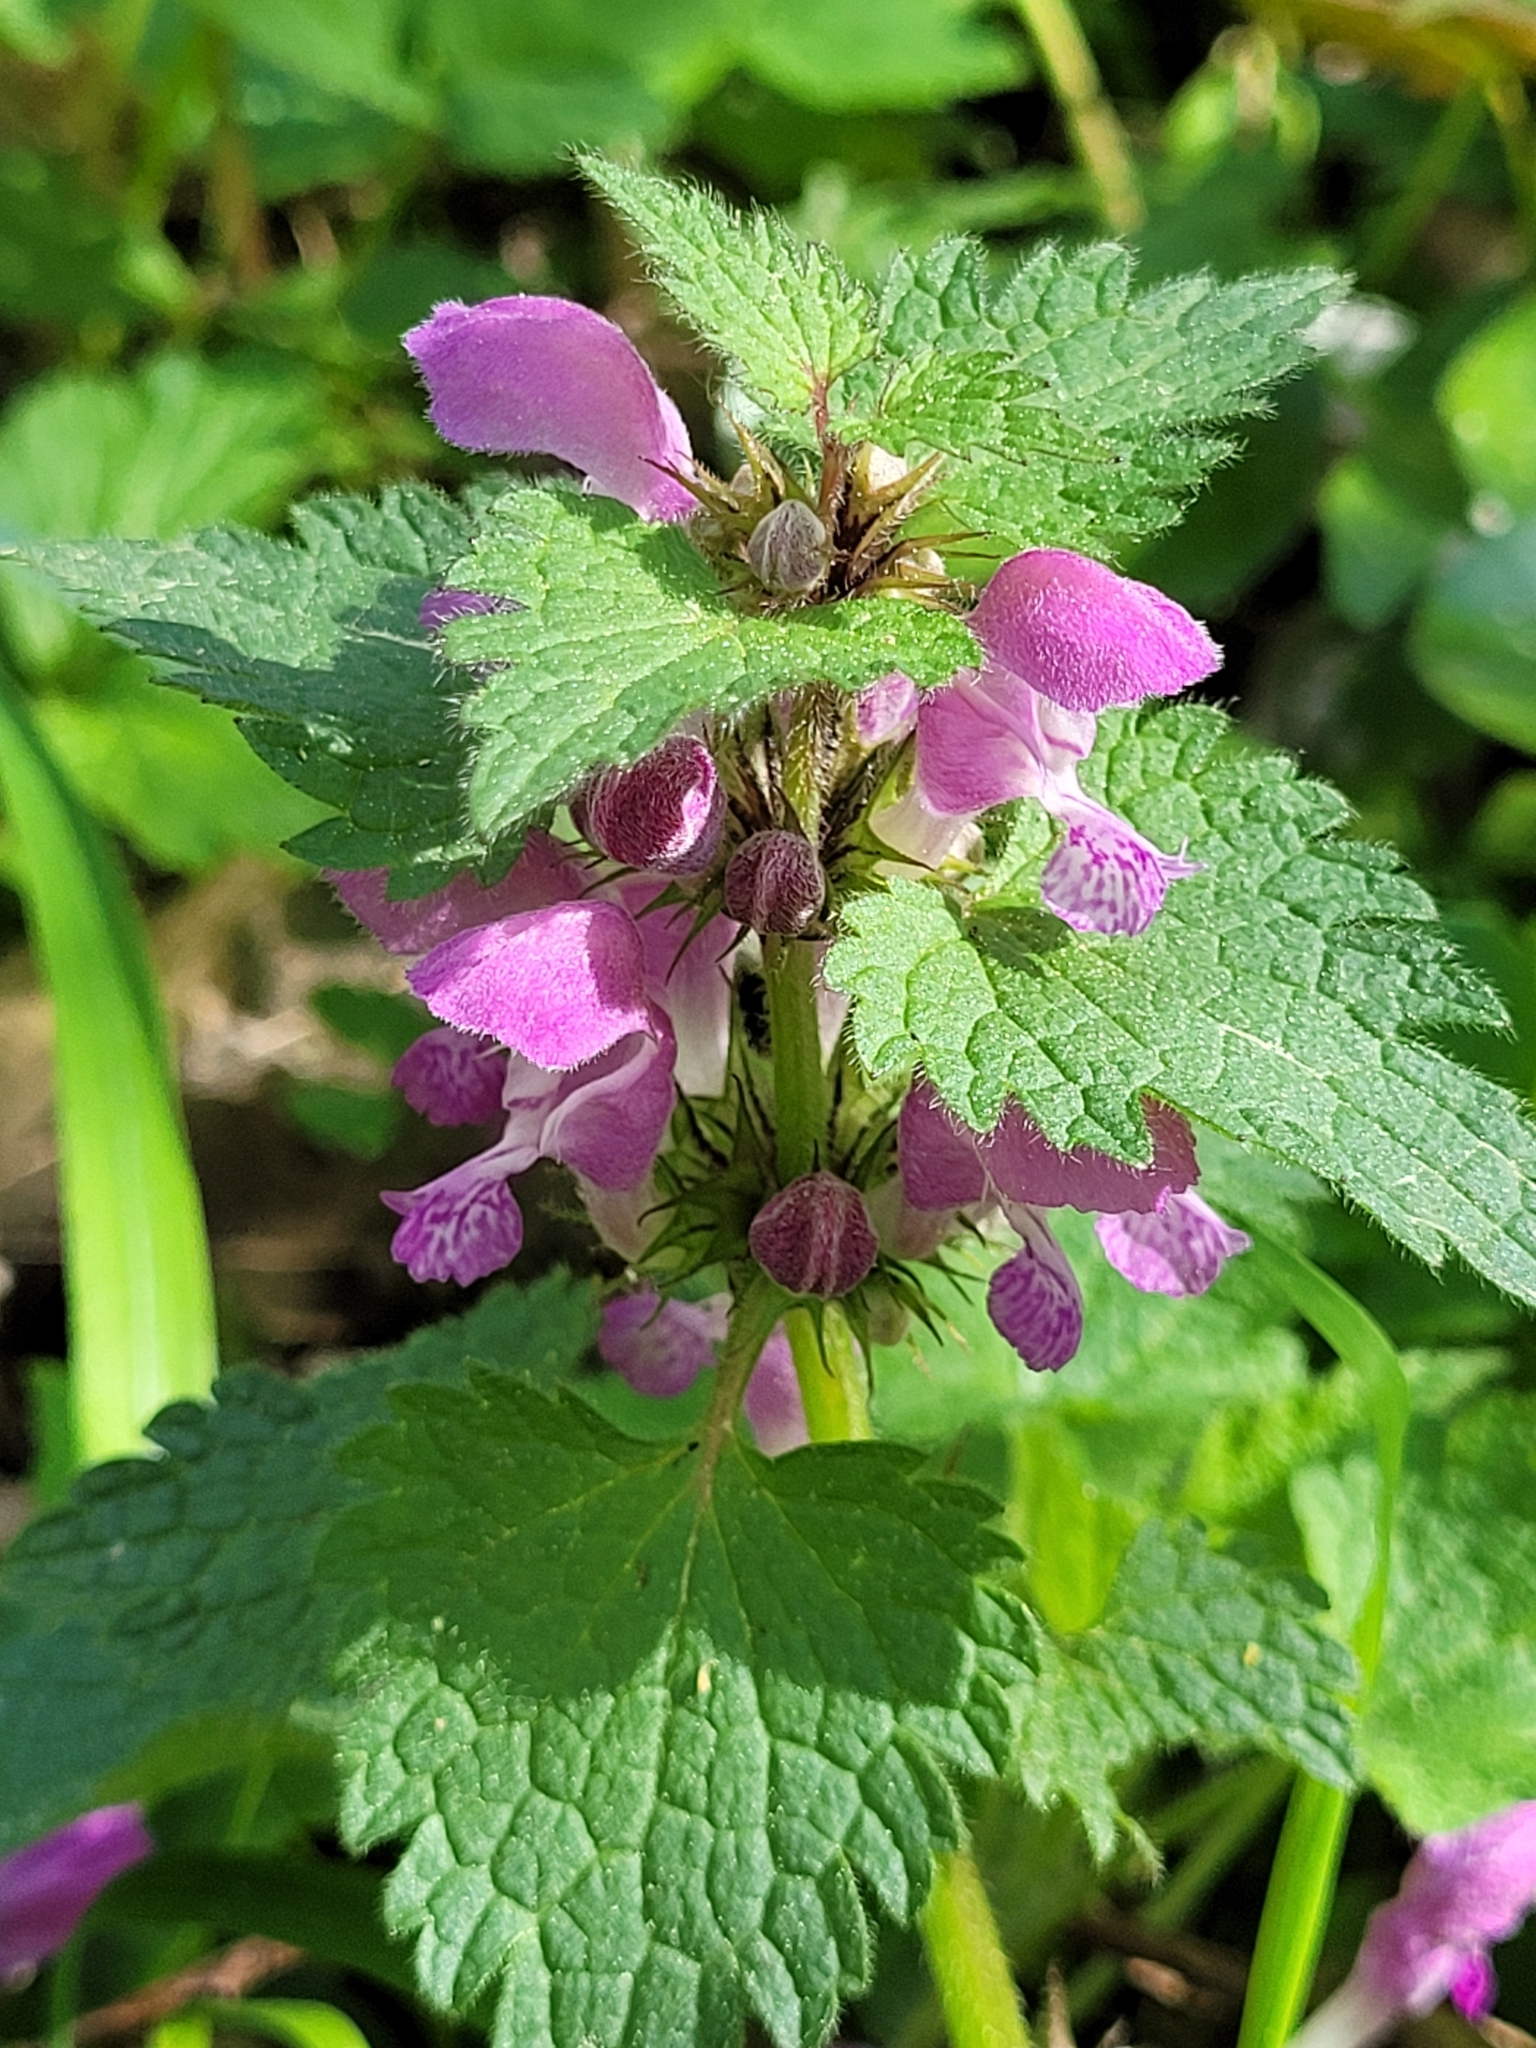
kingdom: Plantae
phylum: Tracheophyta
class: Magnoliopsida
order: Lamiales
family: Lamiaceae
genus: Lamium
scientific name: Lamium maculatum
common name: Spotted dead-nettle
